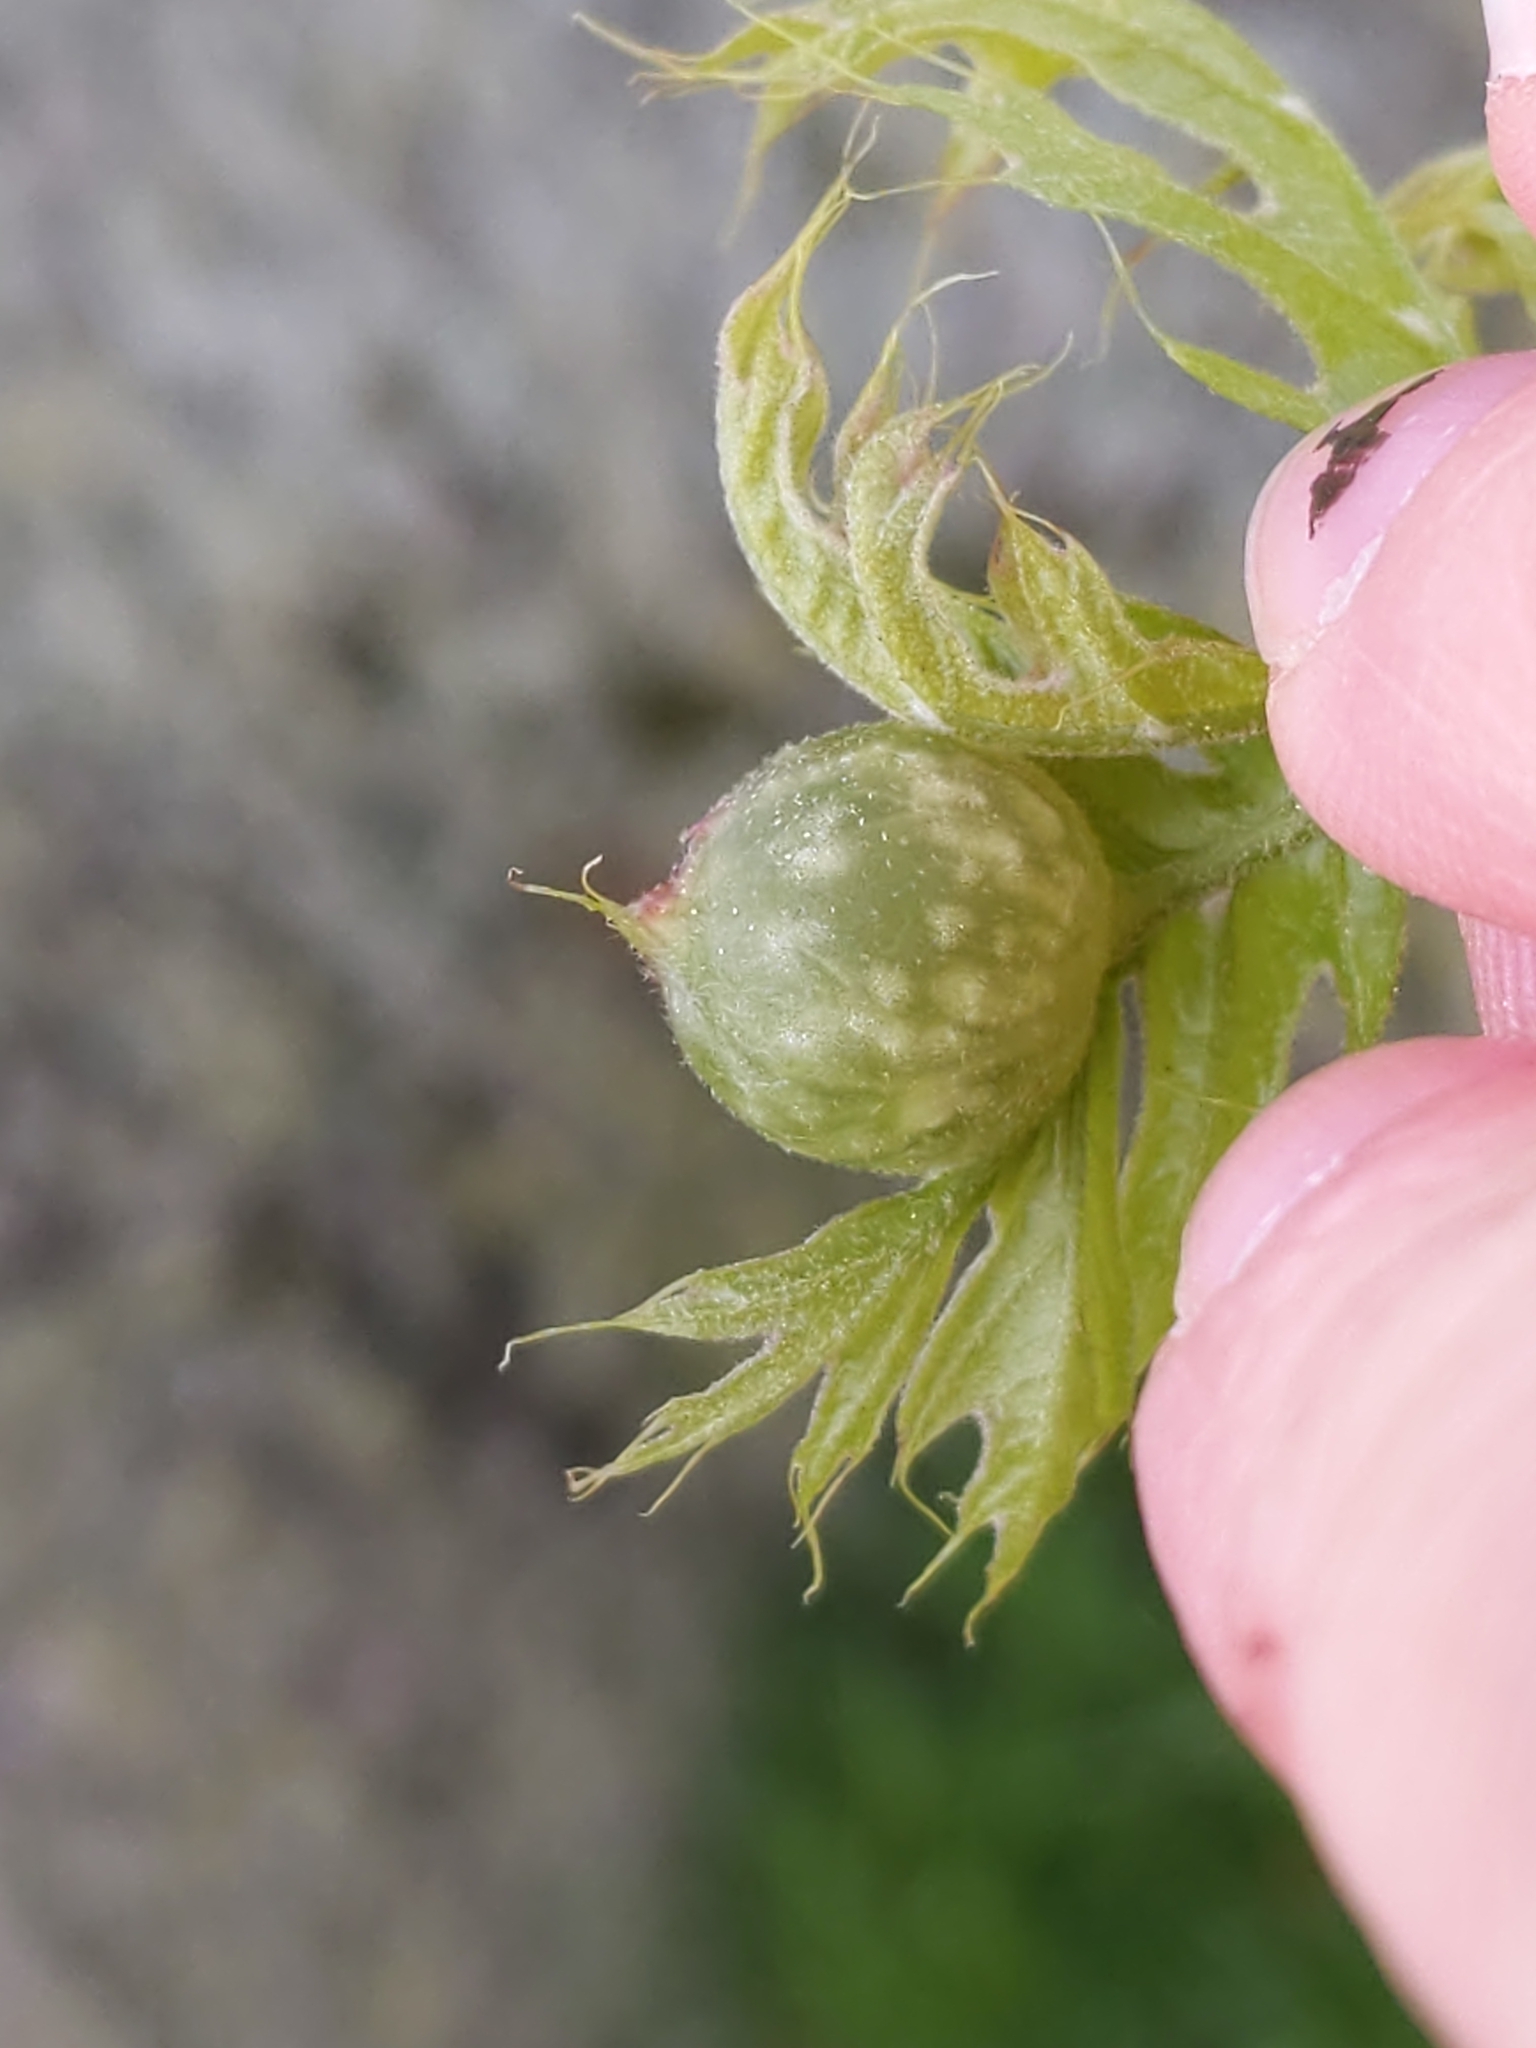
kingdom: Animalia
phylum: Arthropoda
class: Insecta
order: Hymenoptera
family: Cynipidae
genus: Dryocosmus
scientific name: Dryocosmus quercuspalustris
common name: Succulent oak gall wasp
